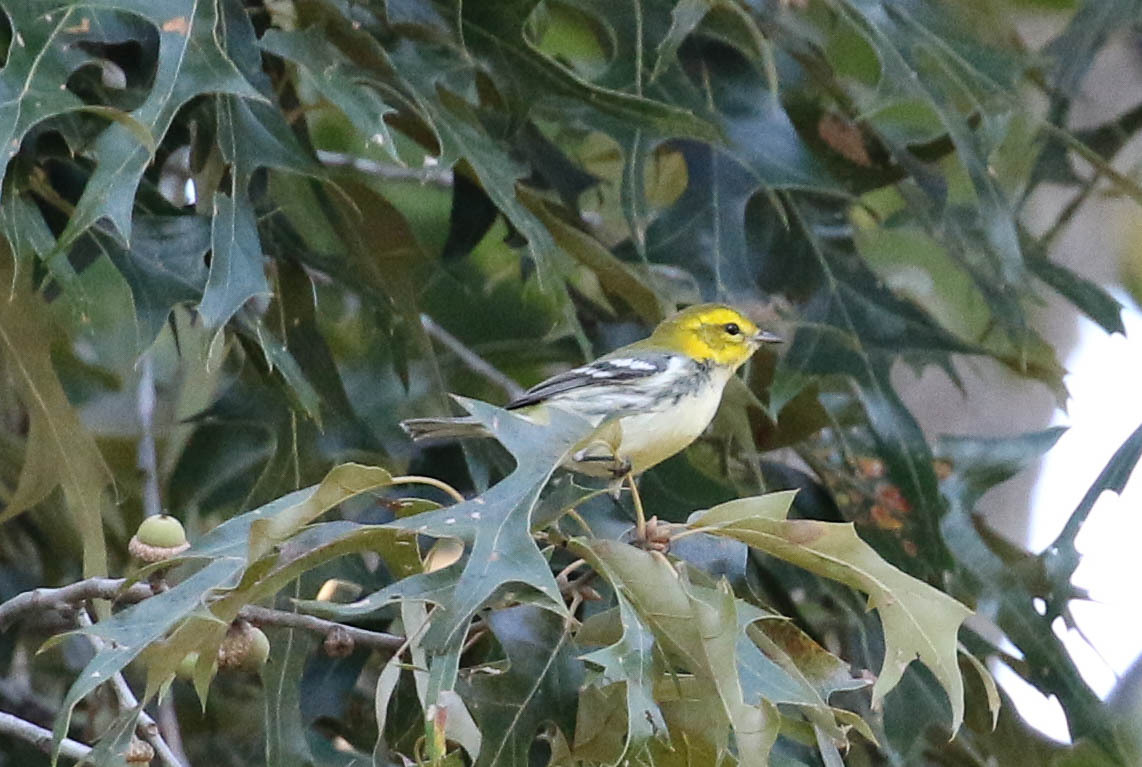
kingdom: Animalia
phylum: Chordata
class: Aves
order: Passeriformes
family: Parulidae
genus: Setophaga
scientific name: Setophaga virens
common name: Black-throated green warbler
